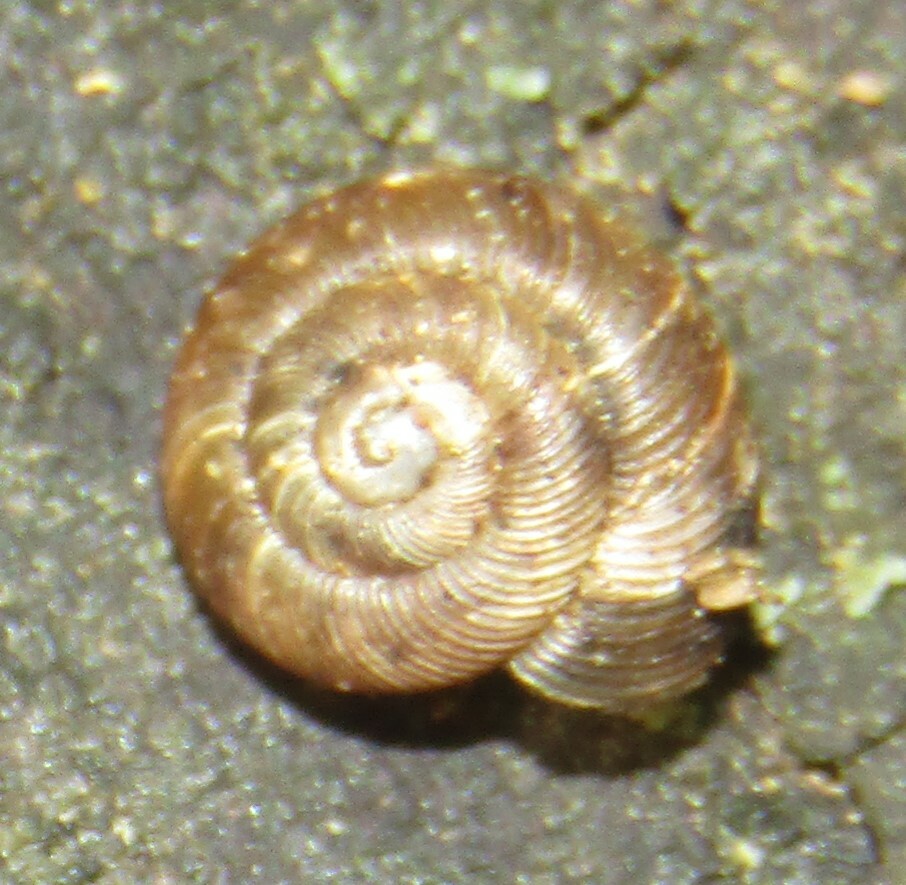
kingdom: Animalia
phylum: Mollusca
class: Gastropoda
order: Stylommatophora
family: Discidae
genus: Discus
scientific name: Discus ruderatus
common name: Brown disc snail
